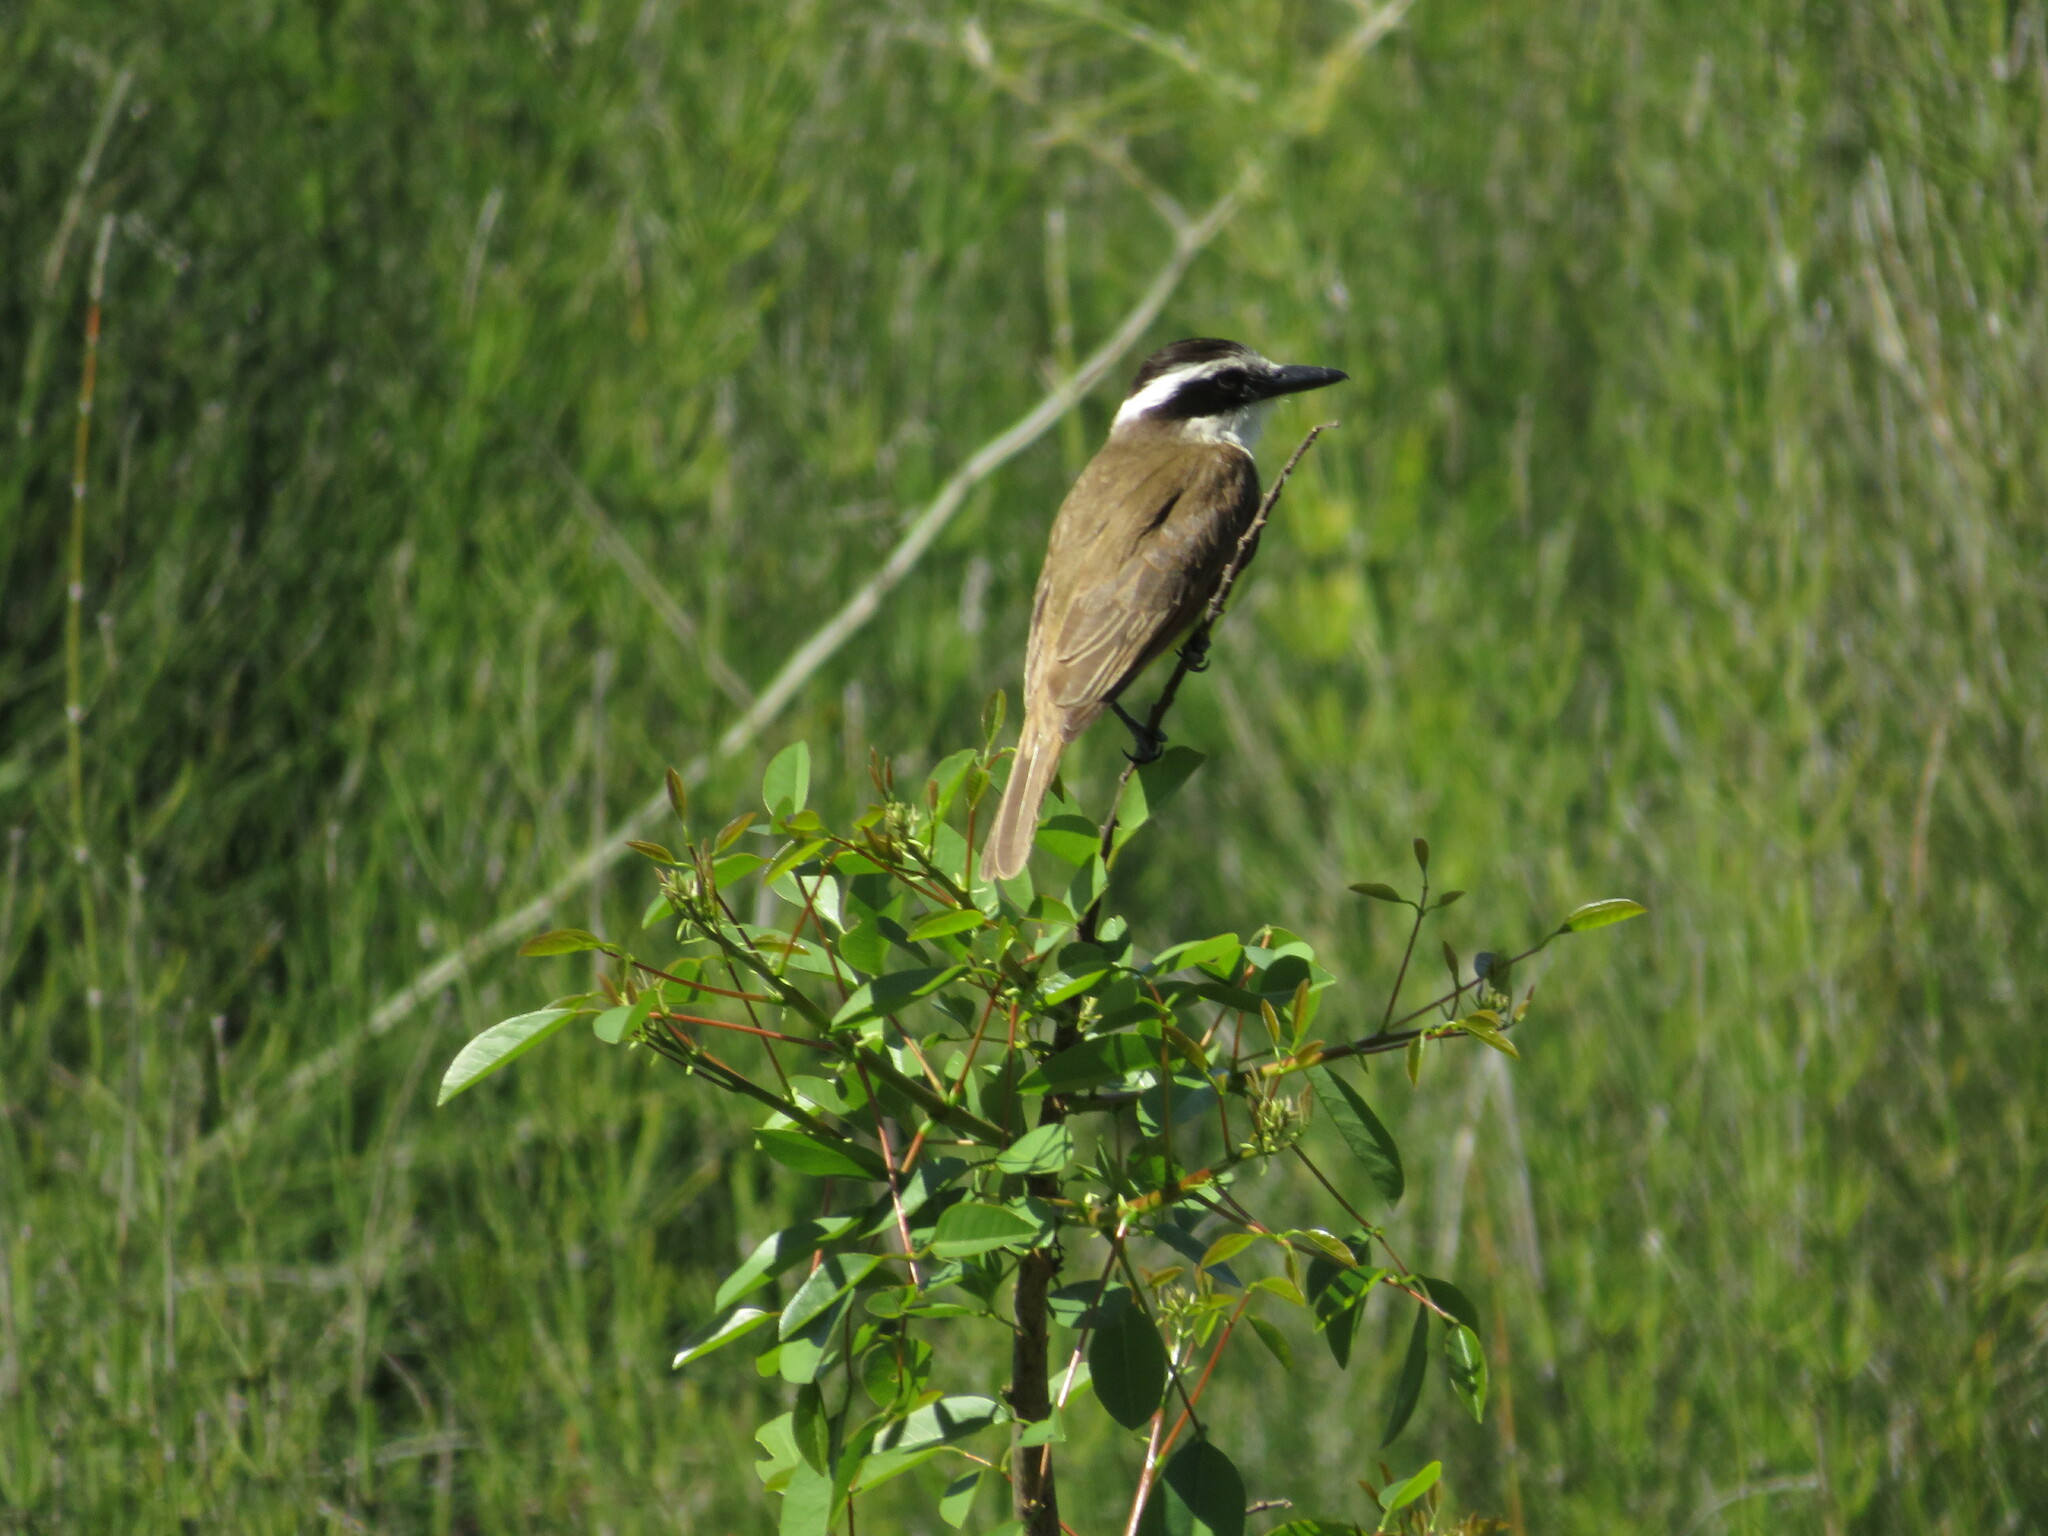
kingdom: Animalia
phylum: Chordata
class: Aves
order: Passeriformes
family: Tyrannidae
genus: Pitangus
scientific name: Pitangus sulphuratus
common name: Great kiskadee
